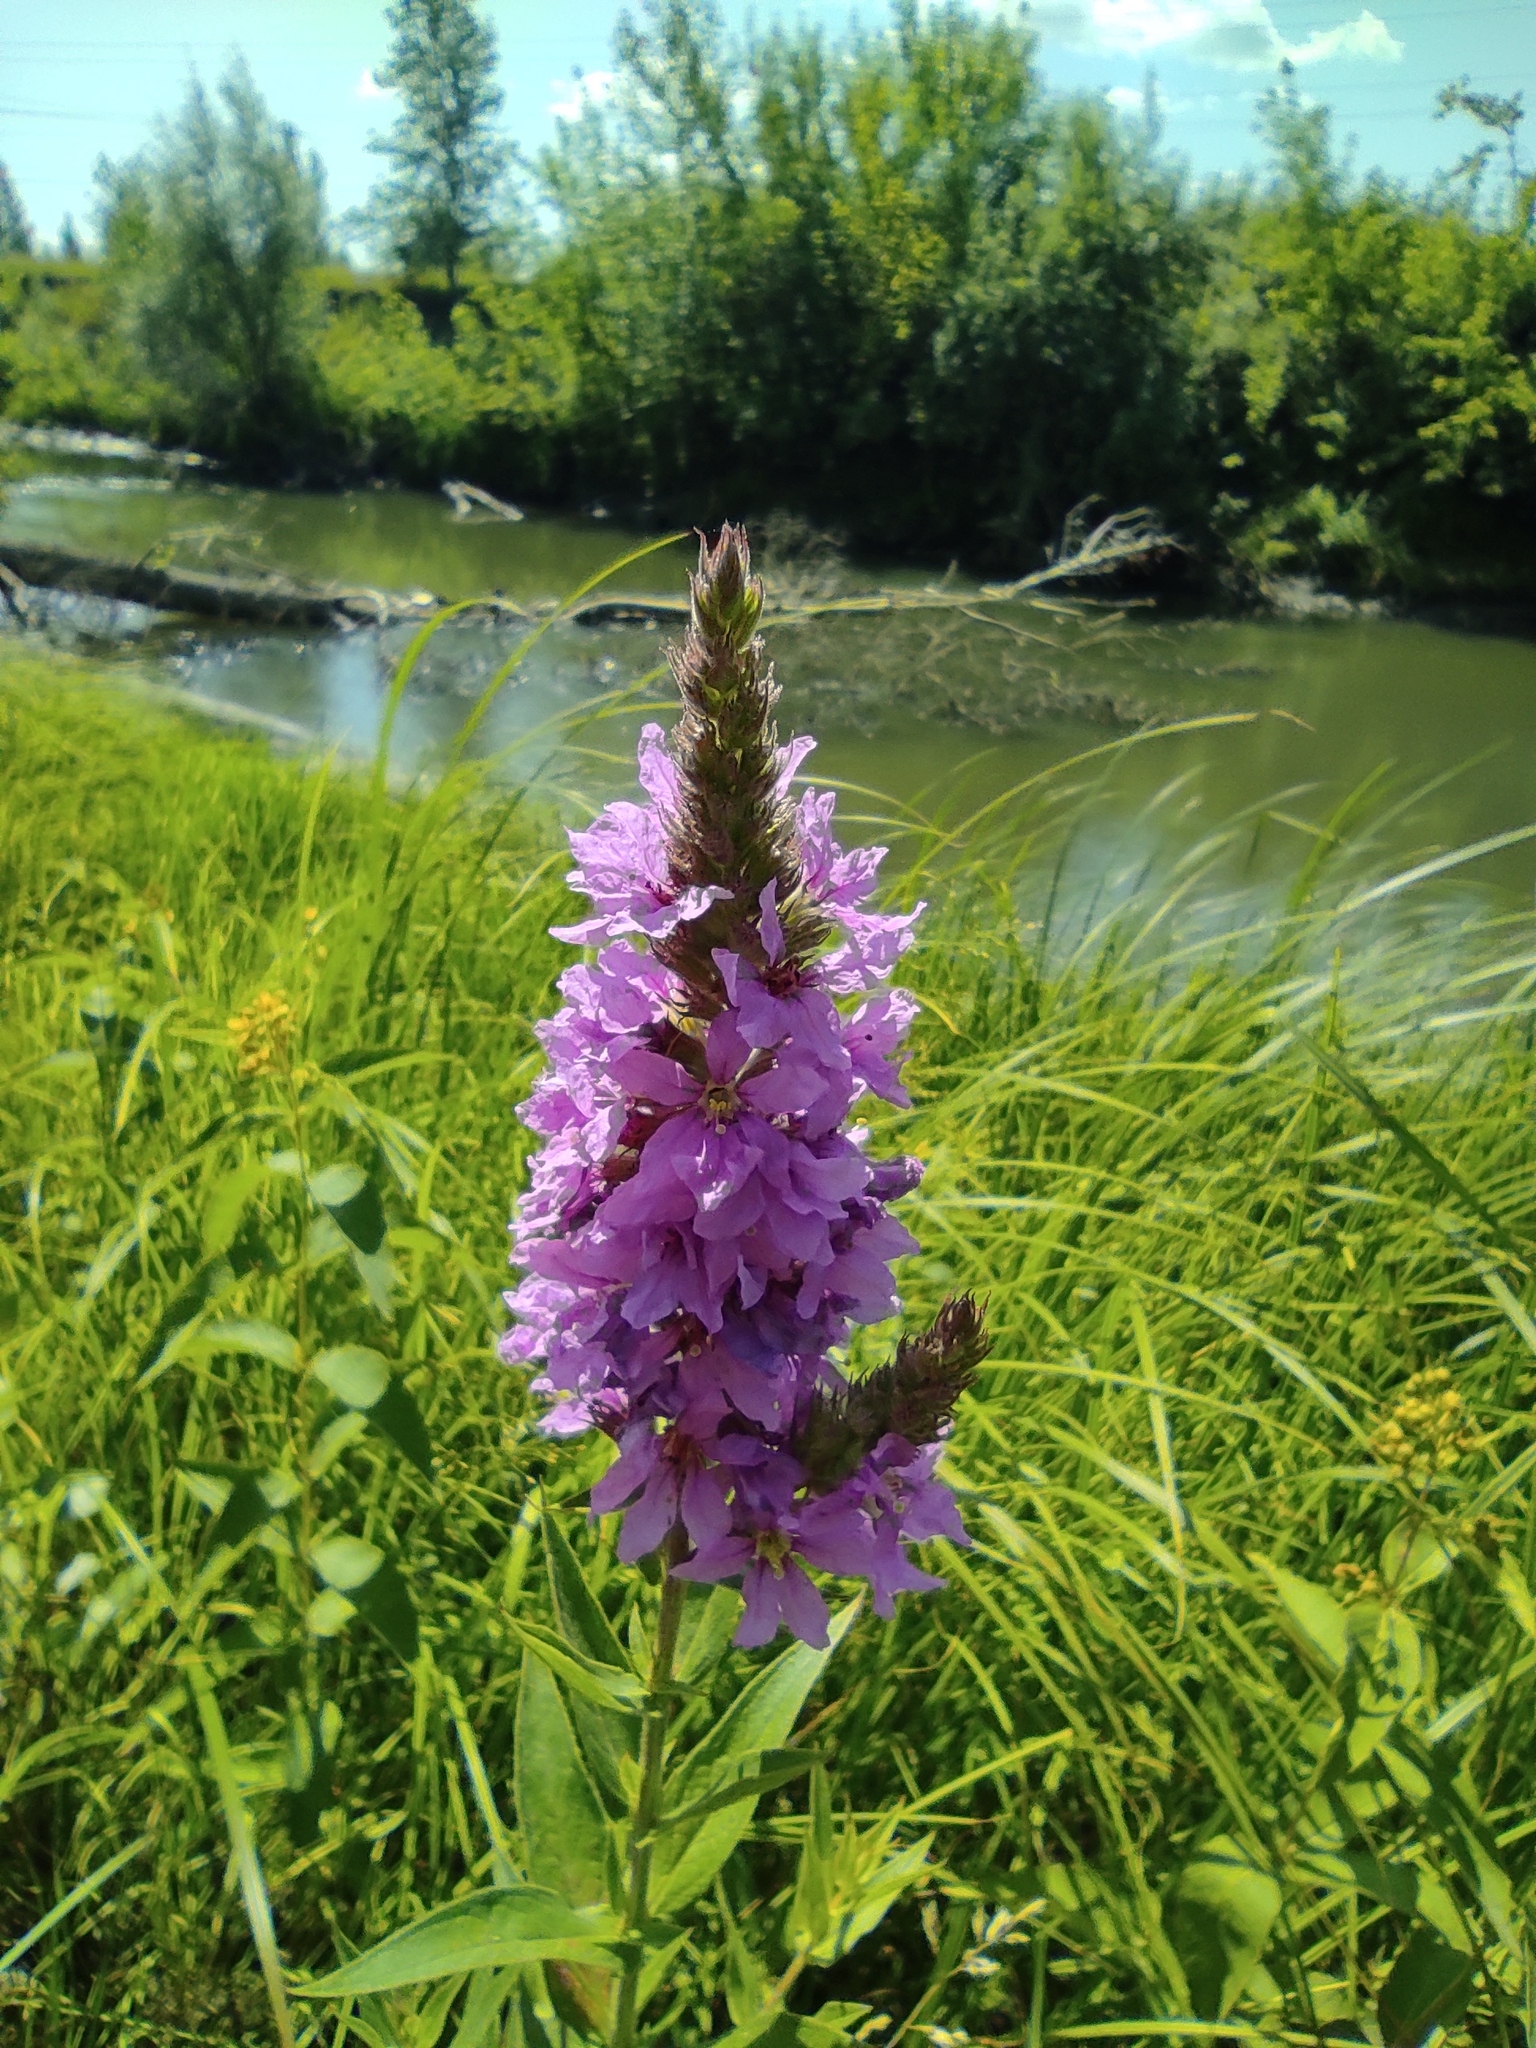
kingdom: Plantae
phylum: Tracheophyta
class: Magnoliopsida
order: Myrtales
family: Lythraceae
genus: Lythrum
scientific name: Lythrum salicaria
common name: Purple loosestrife
